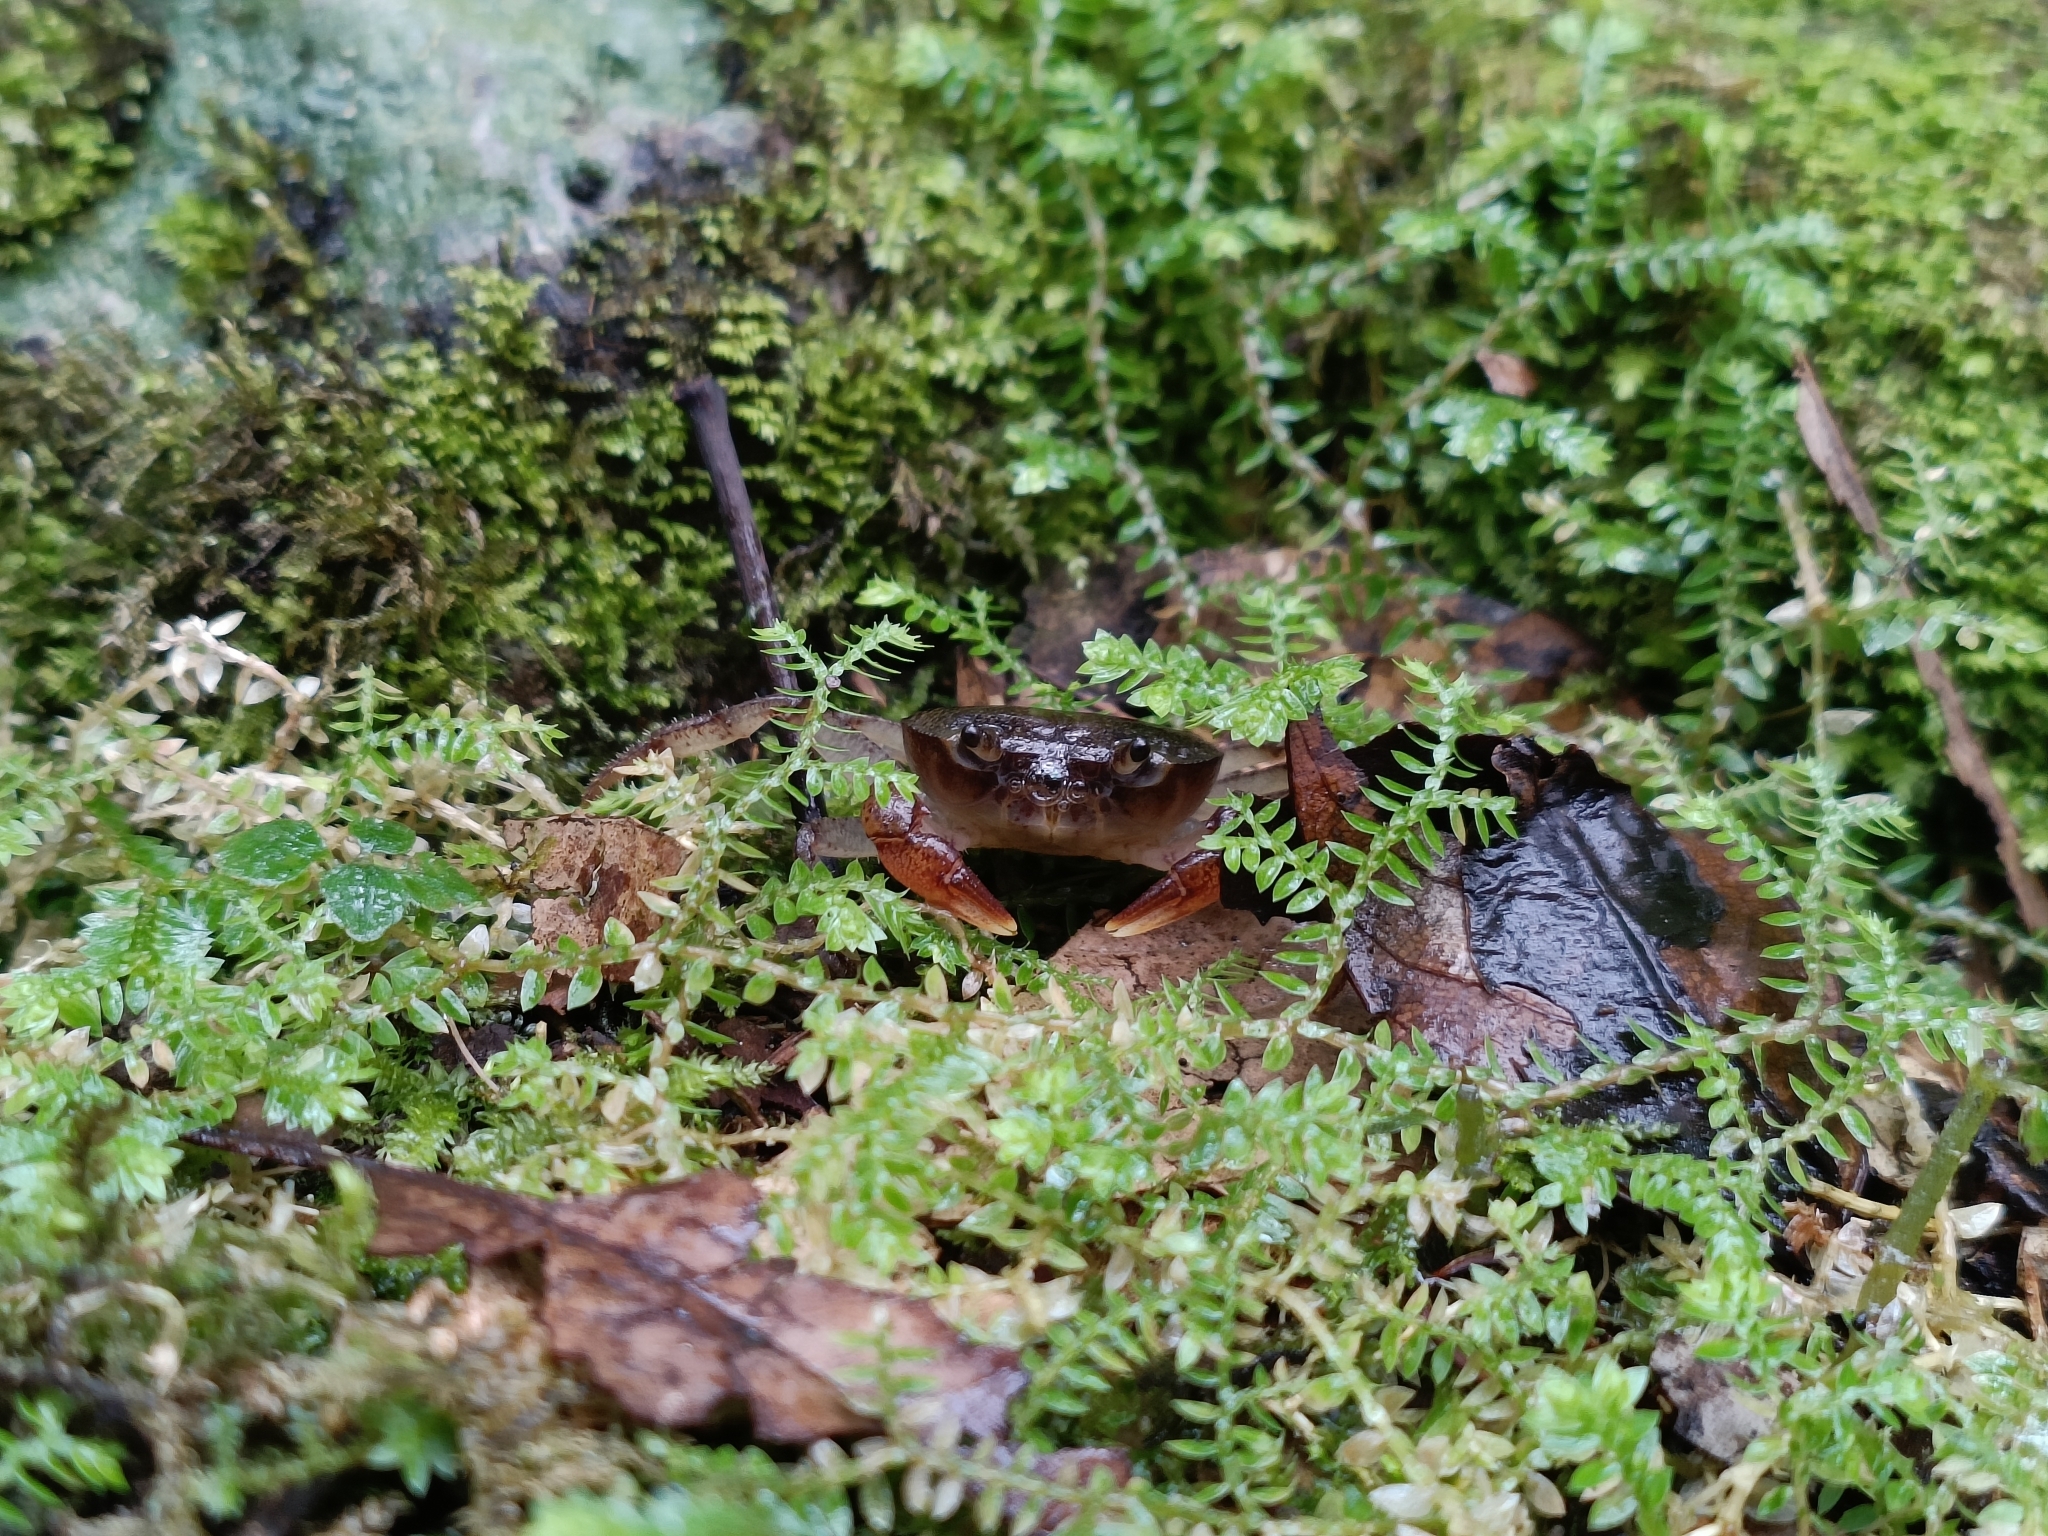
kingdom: Animalia
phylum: Arthropoda
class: Malacostraca
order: Decapoda
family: Potamidae
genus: Geothelphusa
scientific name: Geothelphusa boreas
